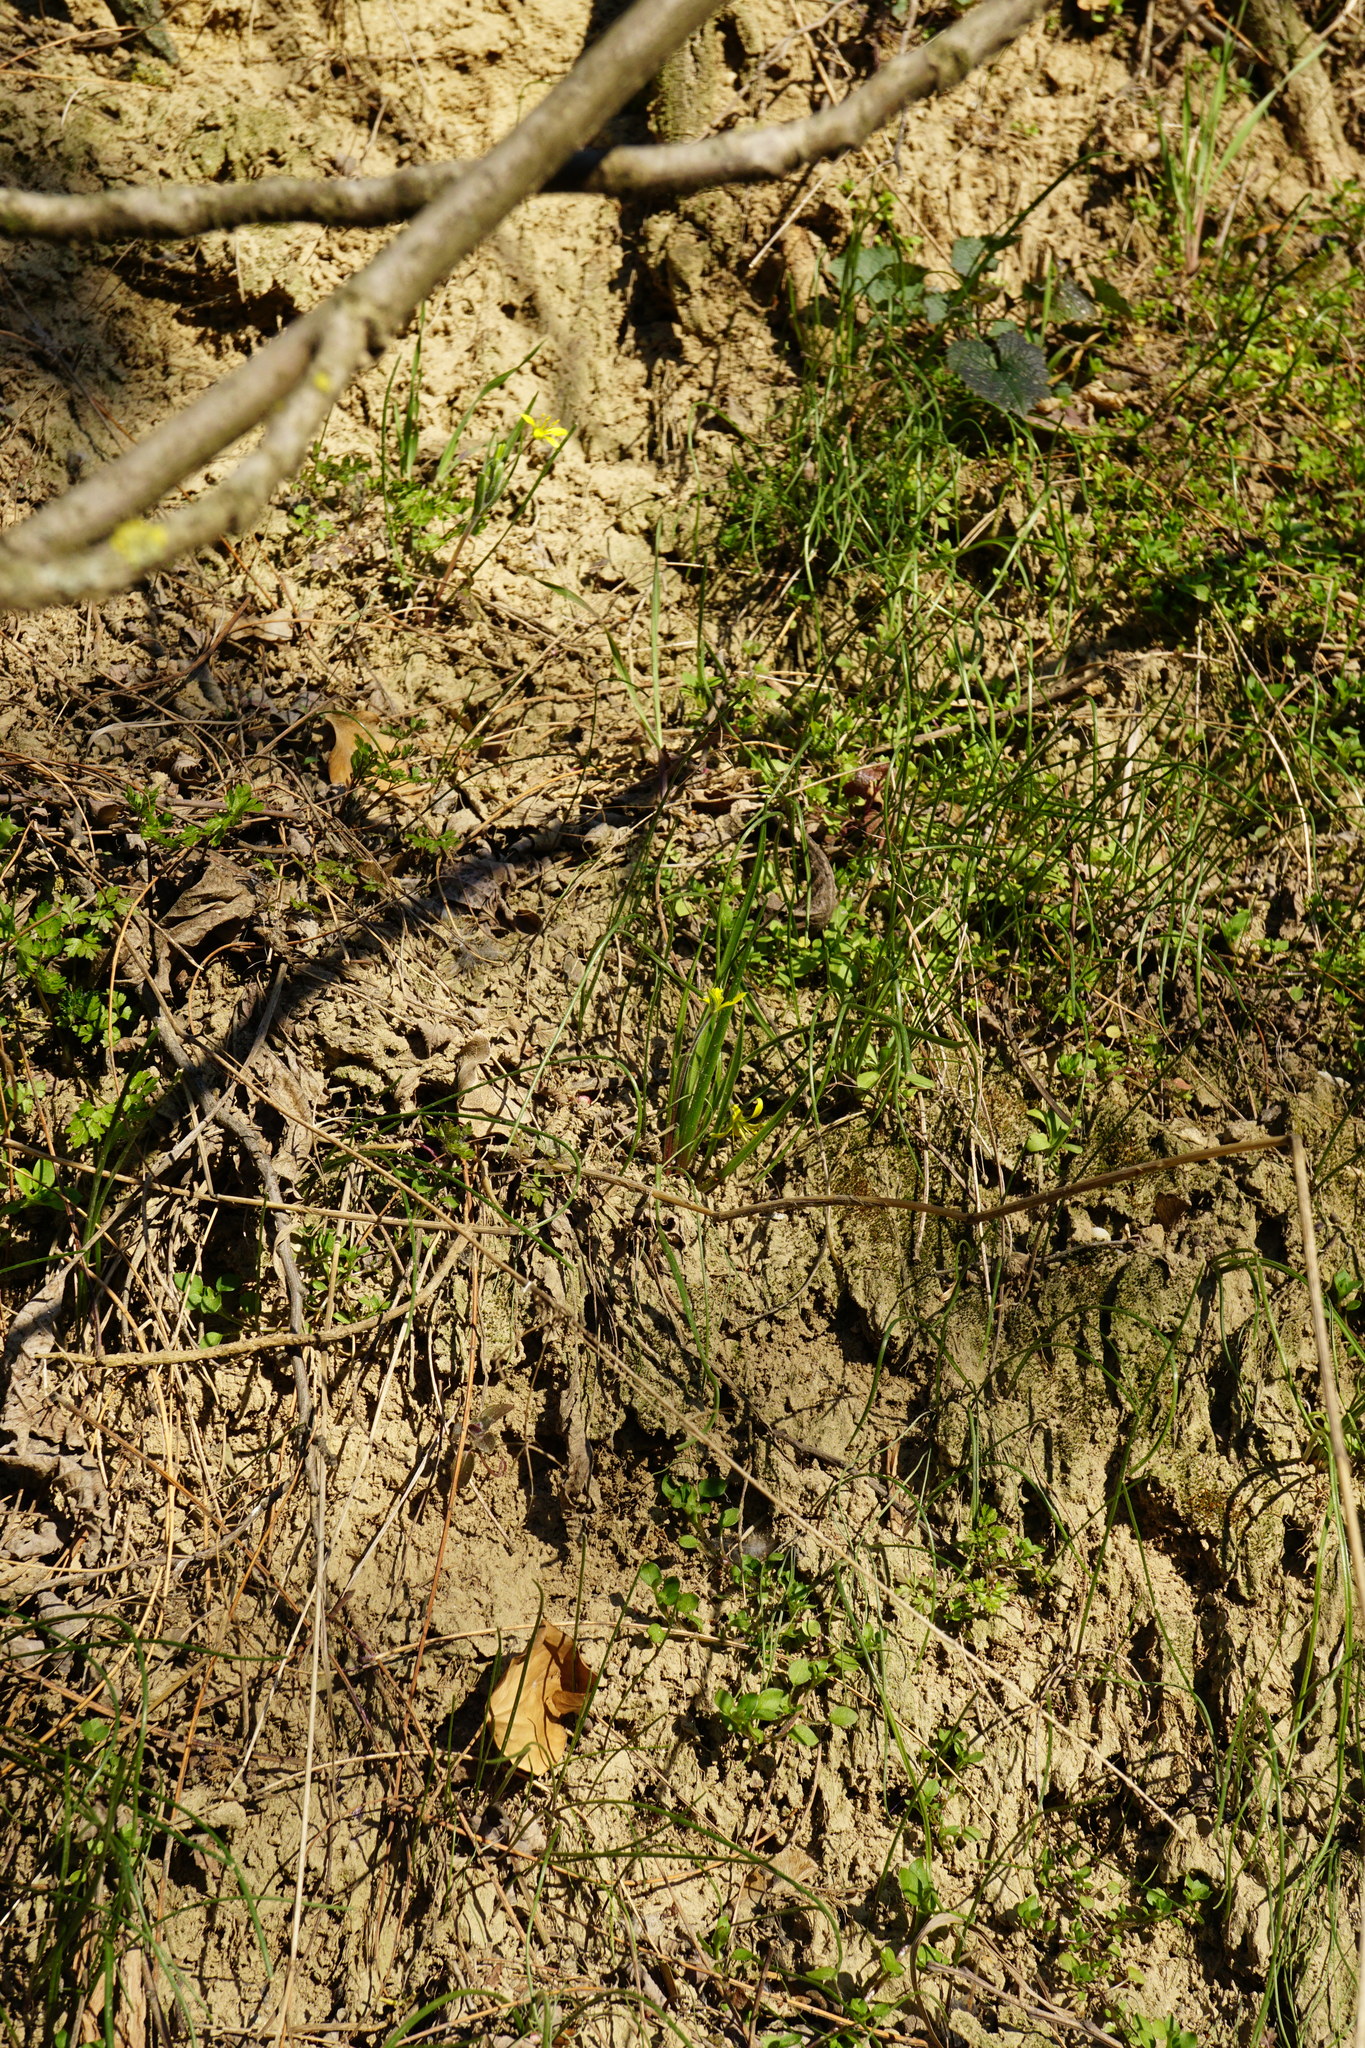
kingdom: Plantae
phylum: Tracheophyta
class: Liliopsida
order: Liliales
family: Liliaceae
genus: Gagea
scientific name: Gagea villosa
